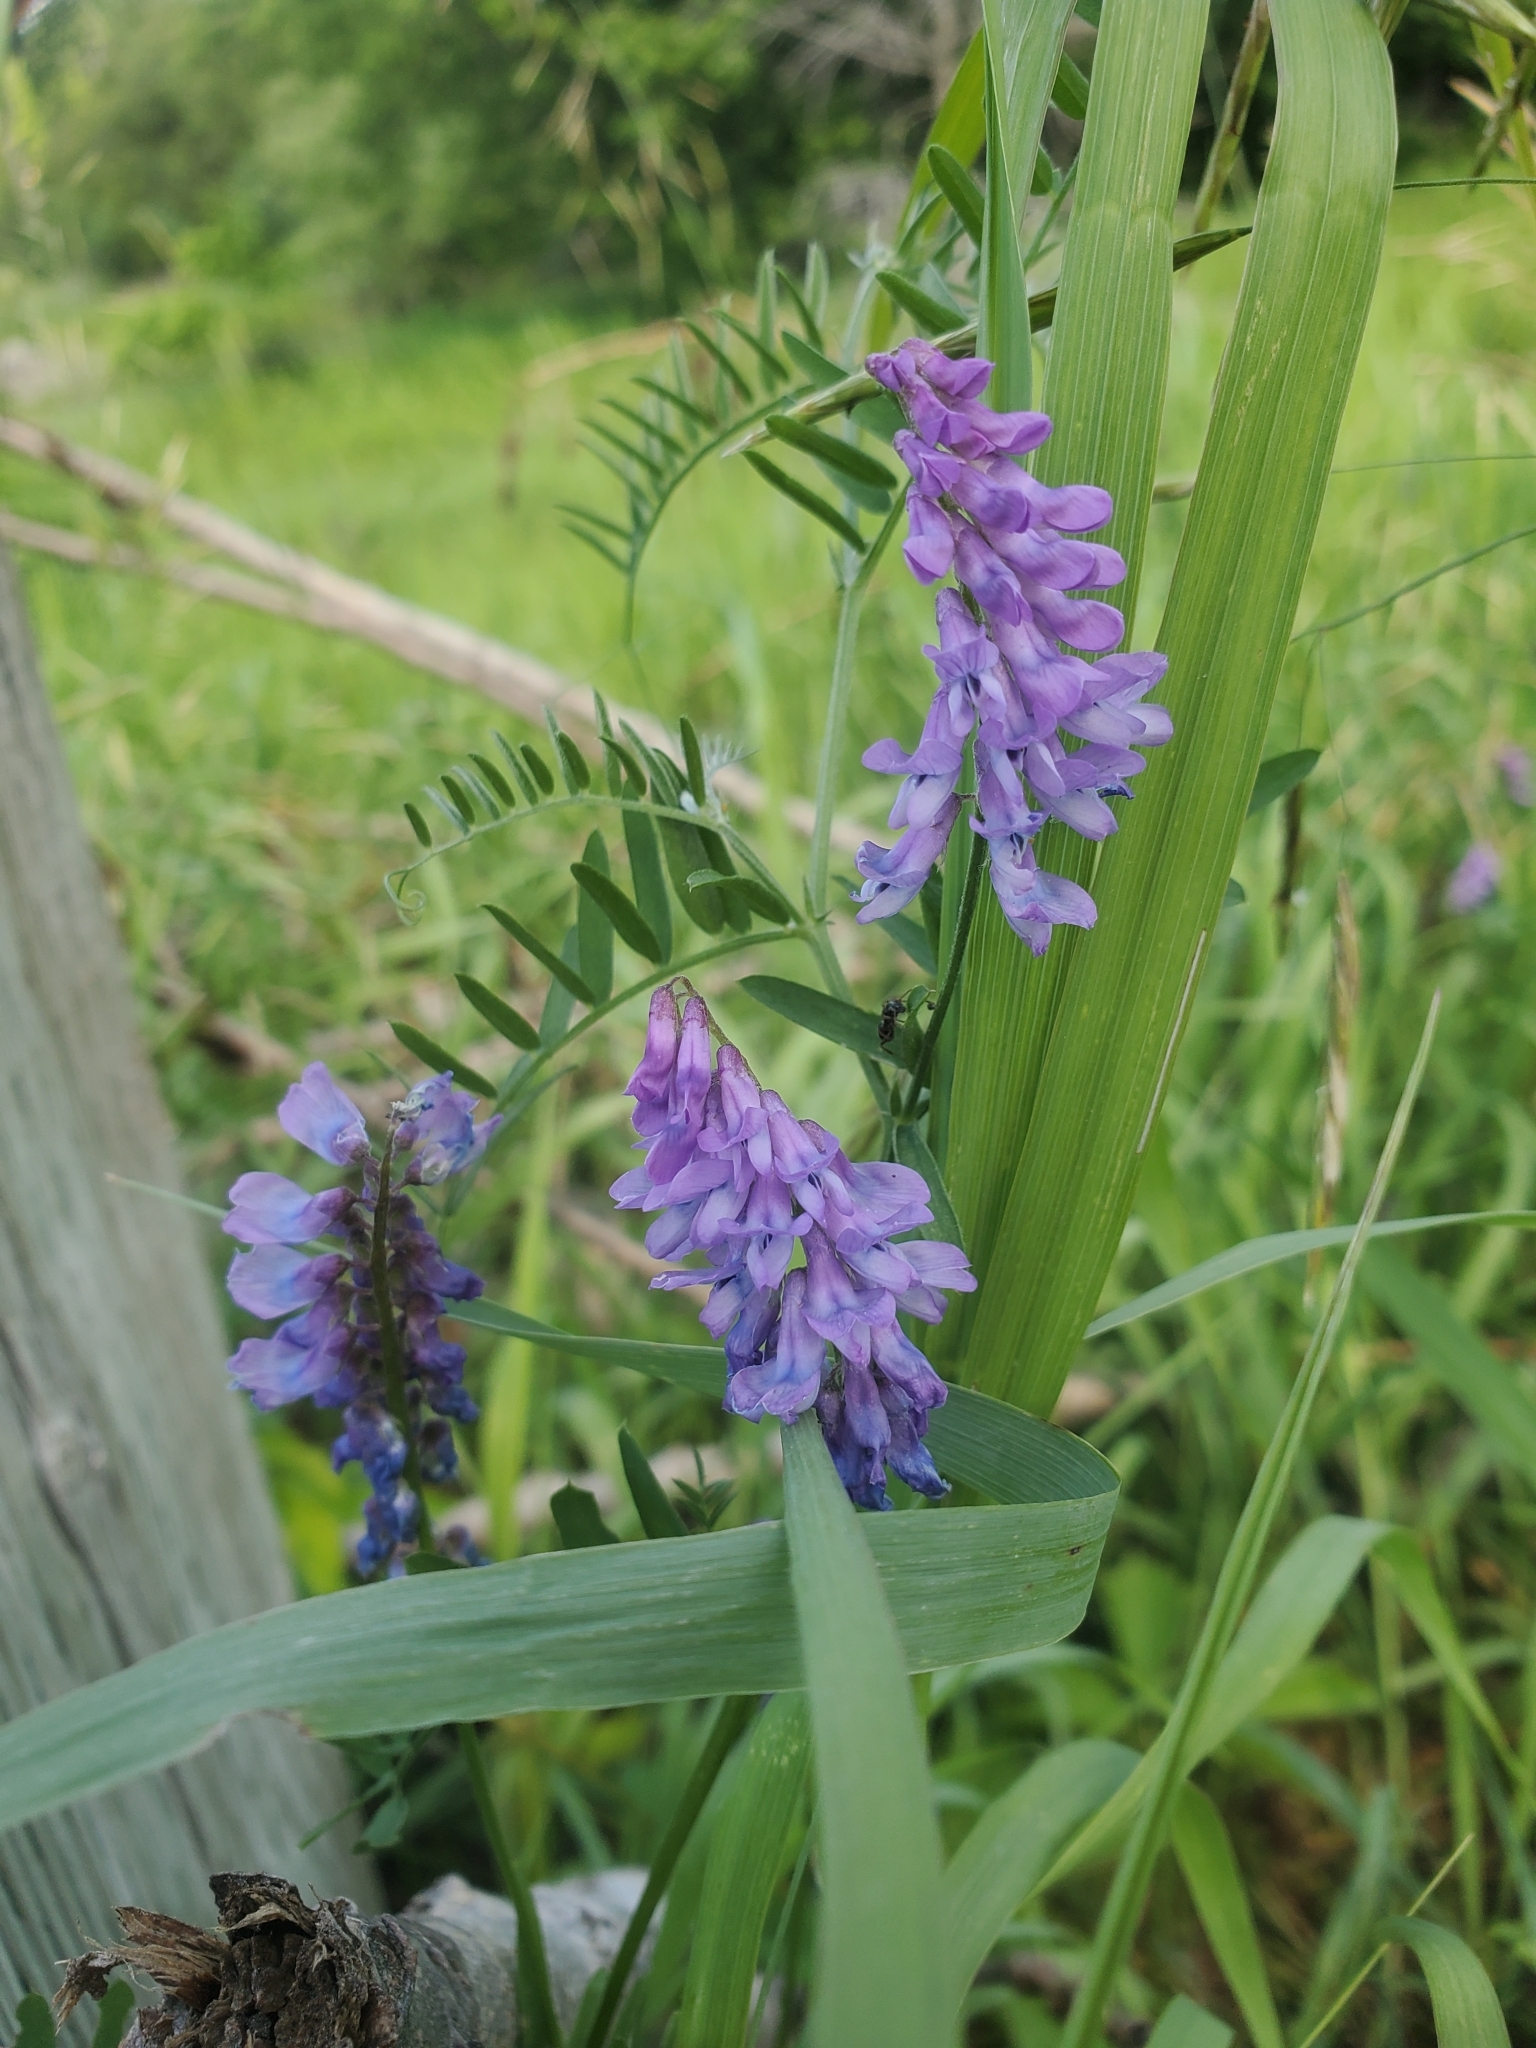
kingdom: Plantae
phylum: Tracheophyta
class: Magnoliopsida
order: Fabales
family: Fabaceae
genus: Vicia
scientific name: Vicia cracca
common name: Bird vetch
